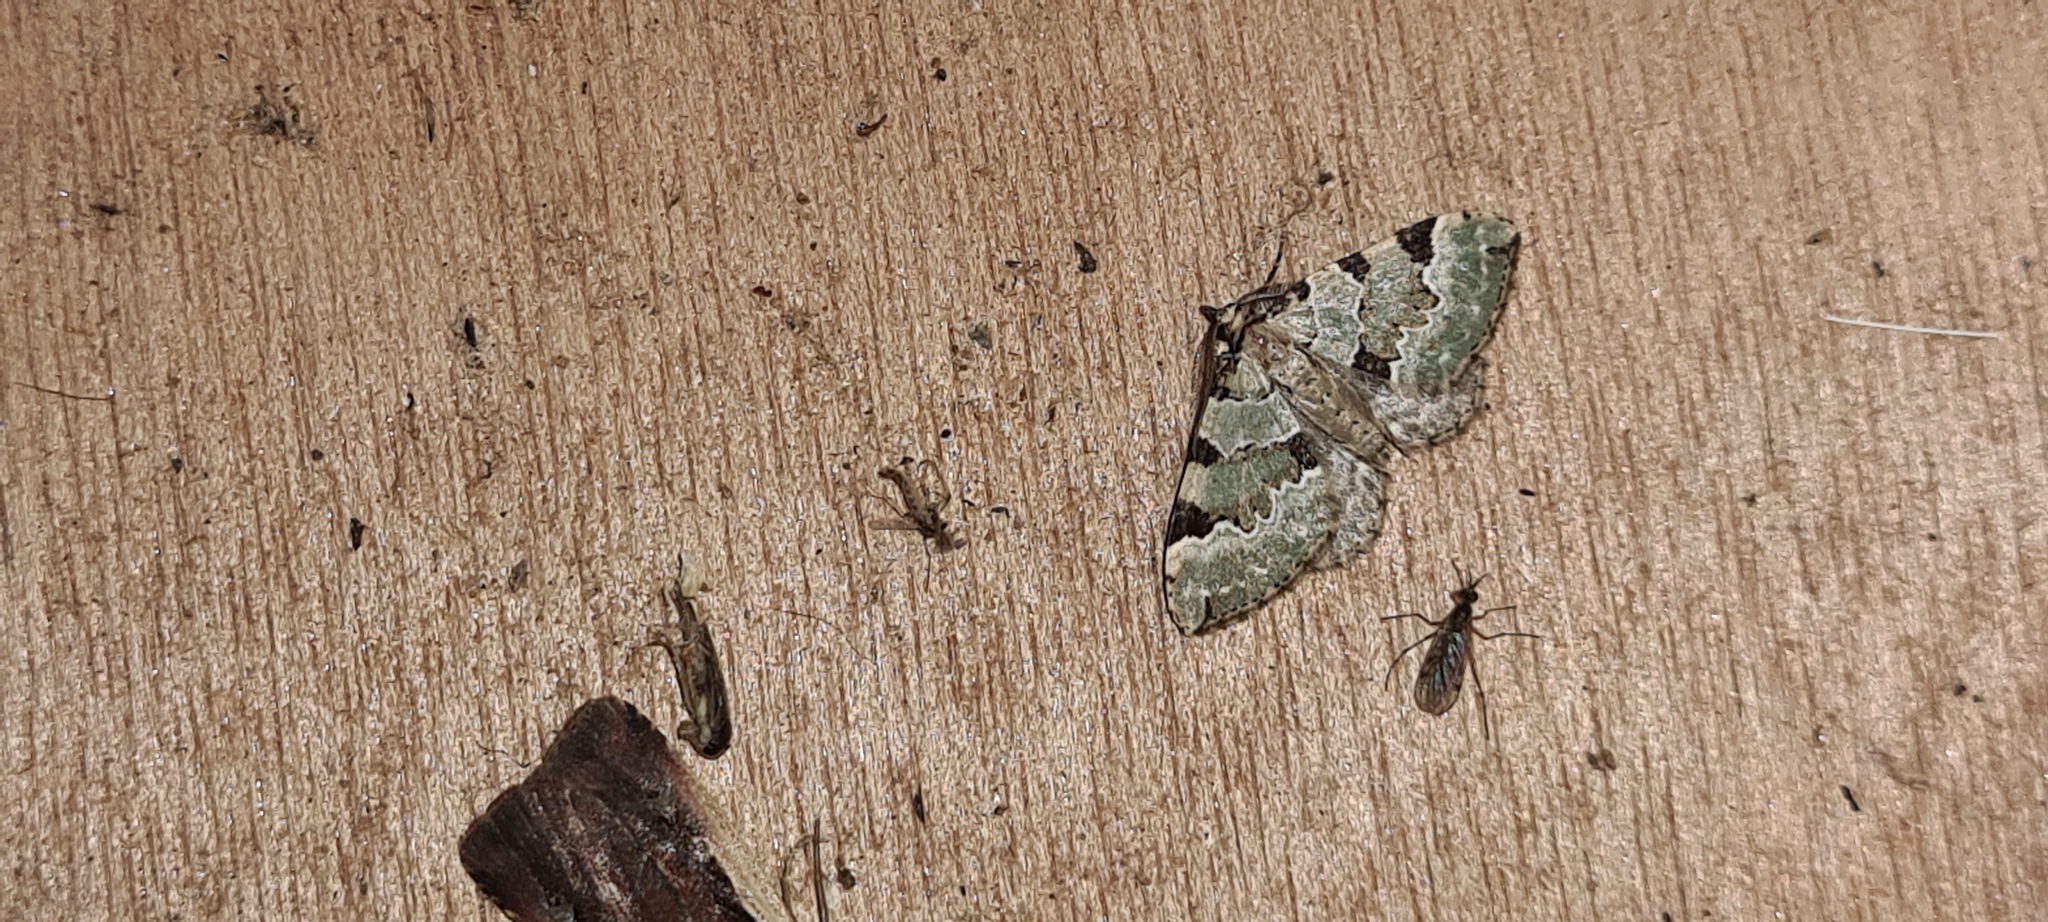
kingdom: Animalia
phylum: Arthropoda
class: Insecta
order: Lepidoptera
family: Geometridae
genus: Colostygia
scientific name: Colostygia pectinataria
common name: Green carpet
